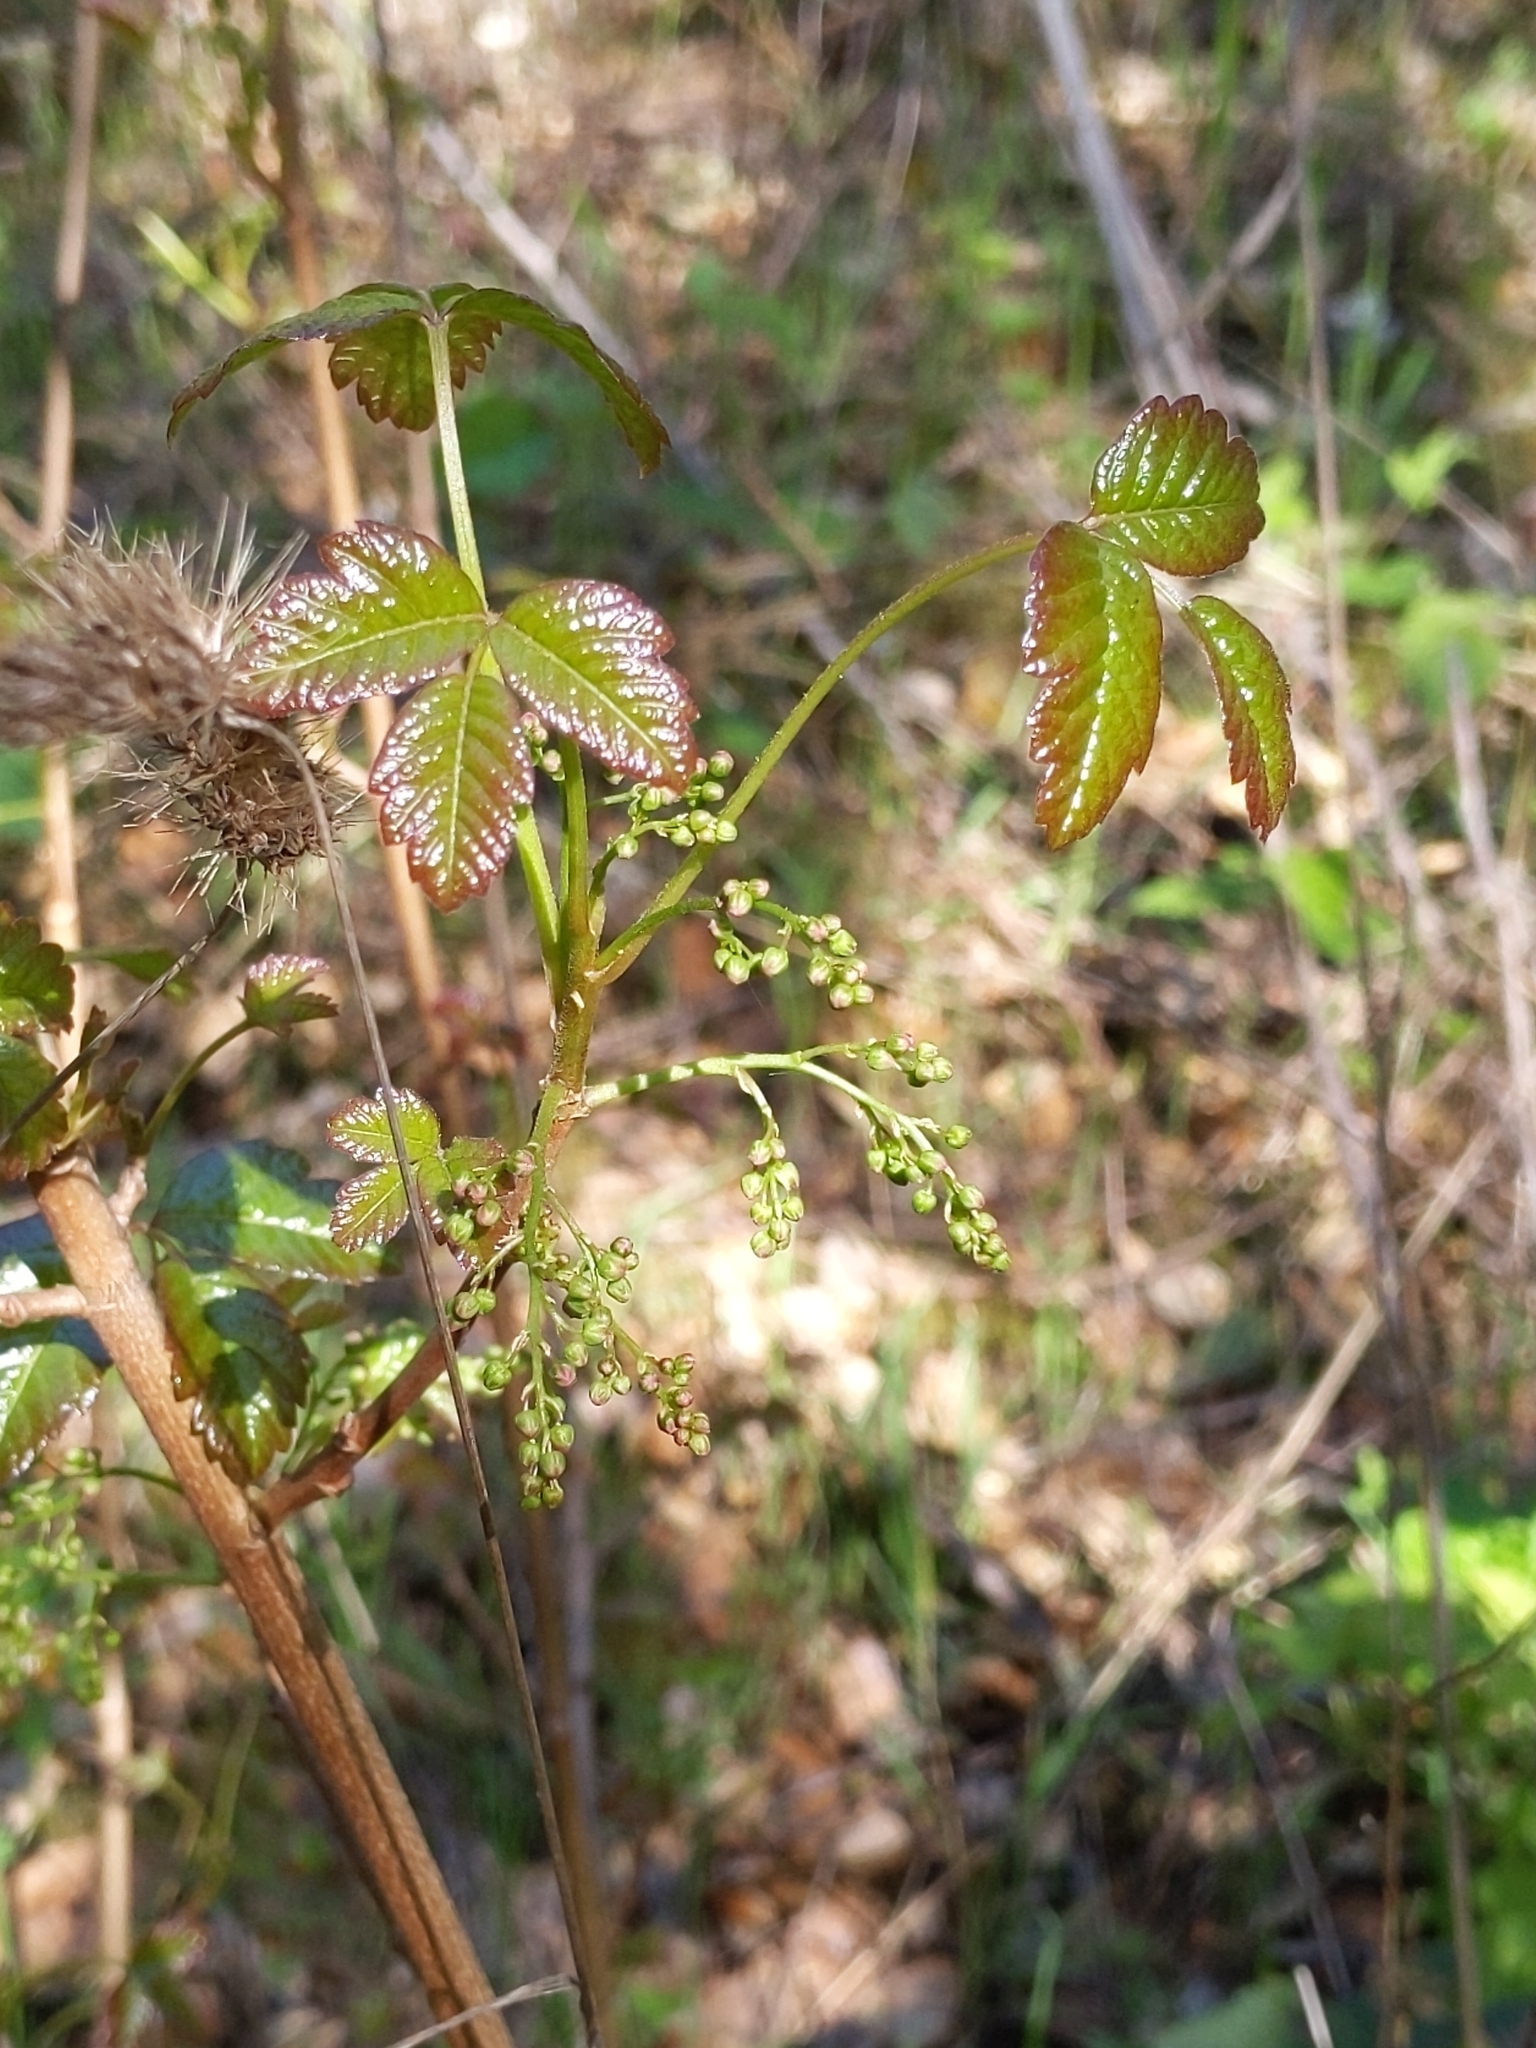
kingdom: Plantae
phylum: Tracheophyta
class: Magnoliopsida
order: Sapindales
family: Anacardiaceae
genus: Toxicodendron
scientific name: Toxicodendron diversilobum
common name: Pacific poison-oak
